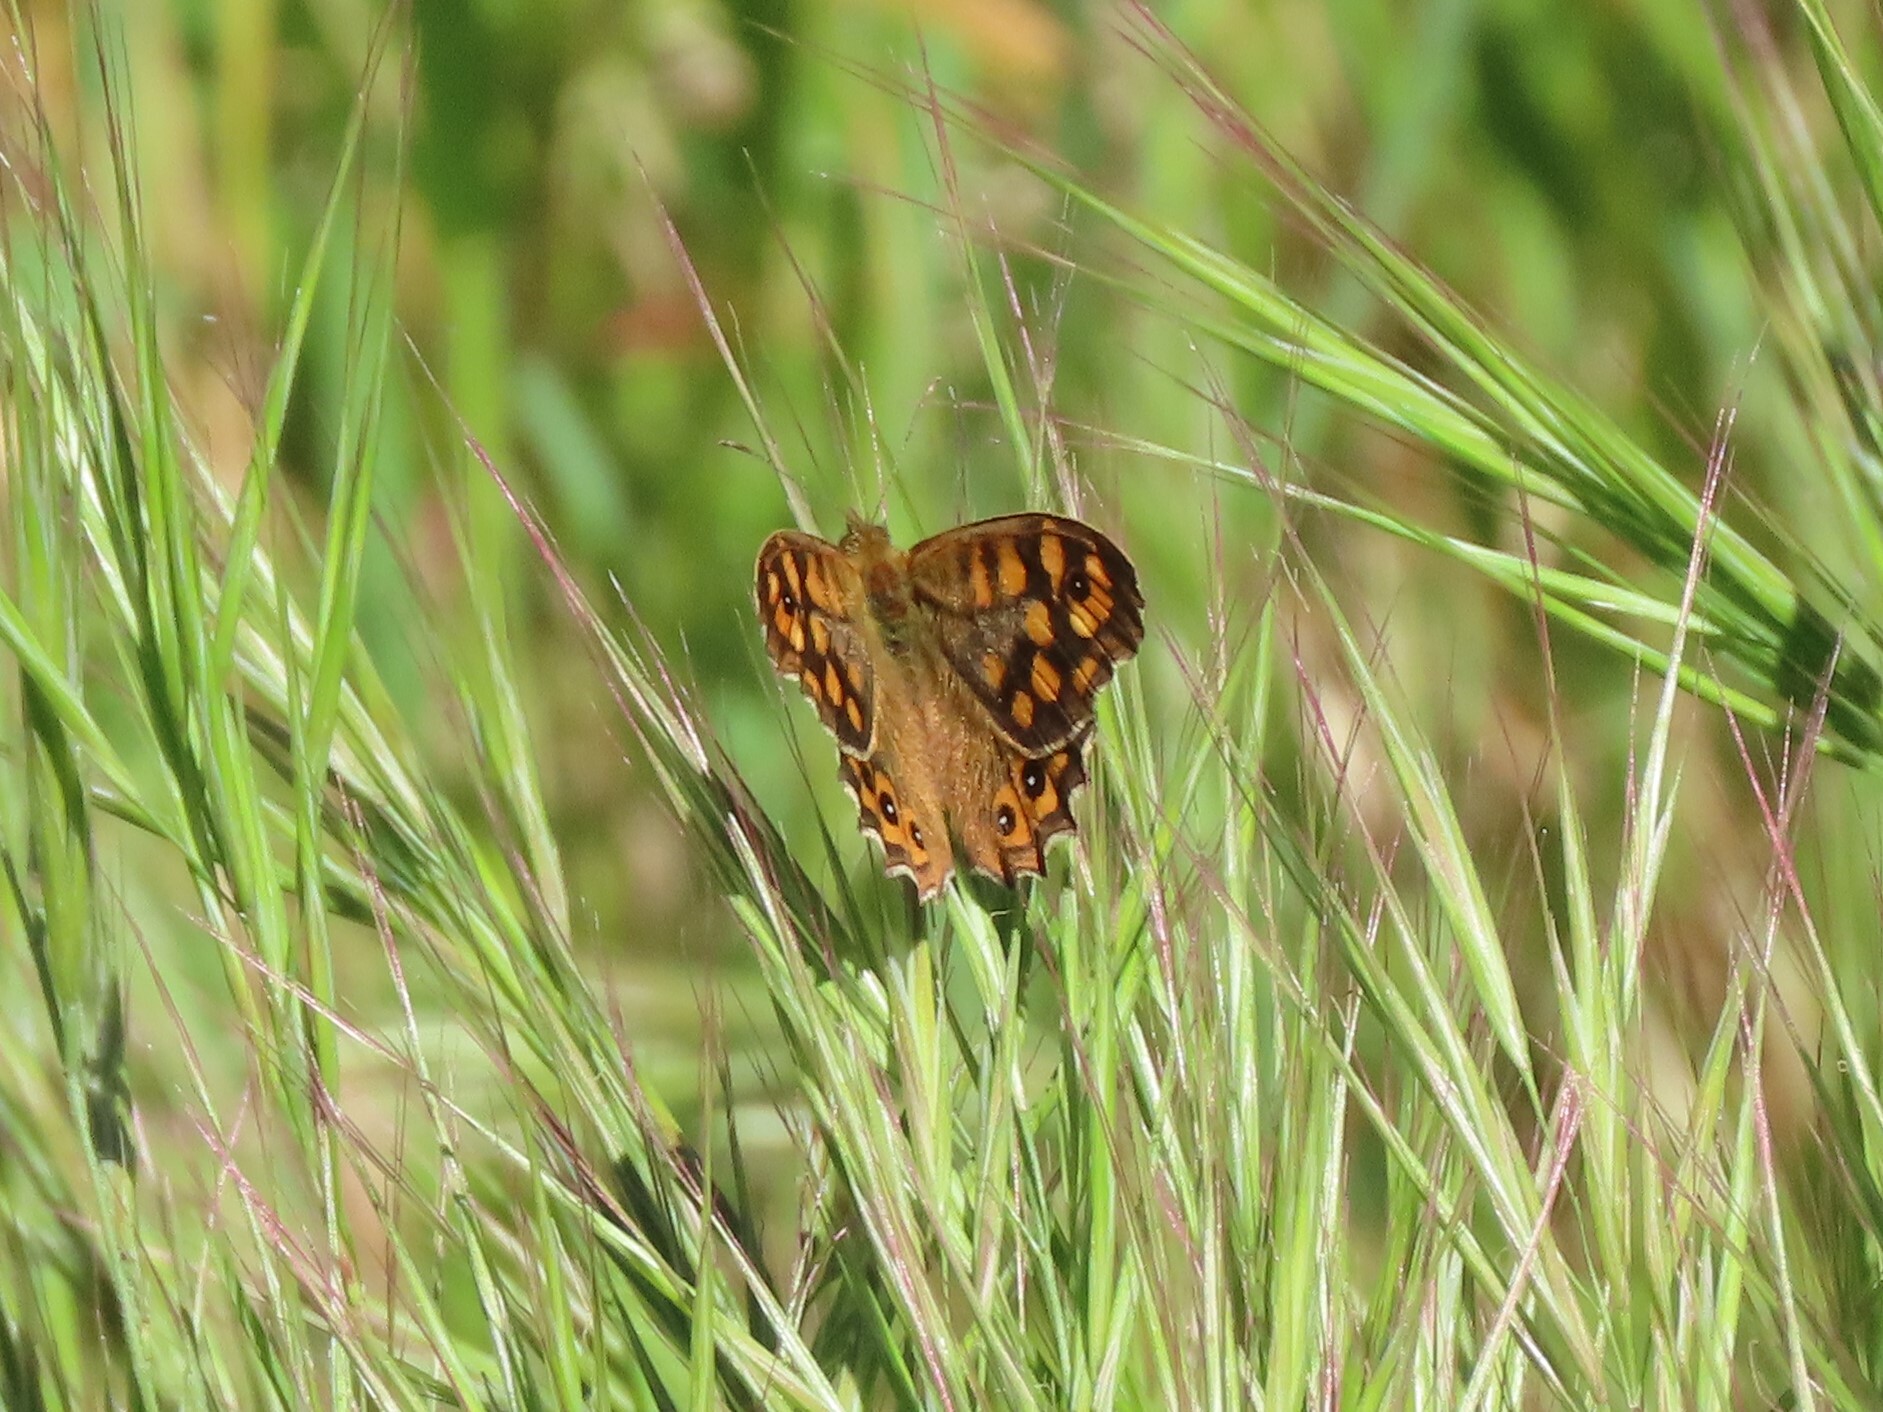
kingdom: Animalia
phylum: Arthropoda
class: Insecta
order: Lepidoptera
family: Nymphalidae
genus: Pararge
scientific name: Pararge aegeria
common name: Speckled wood
